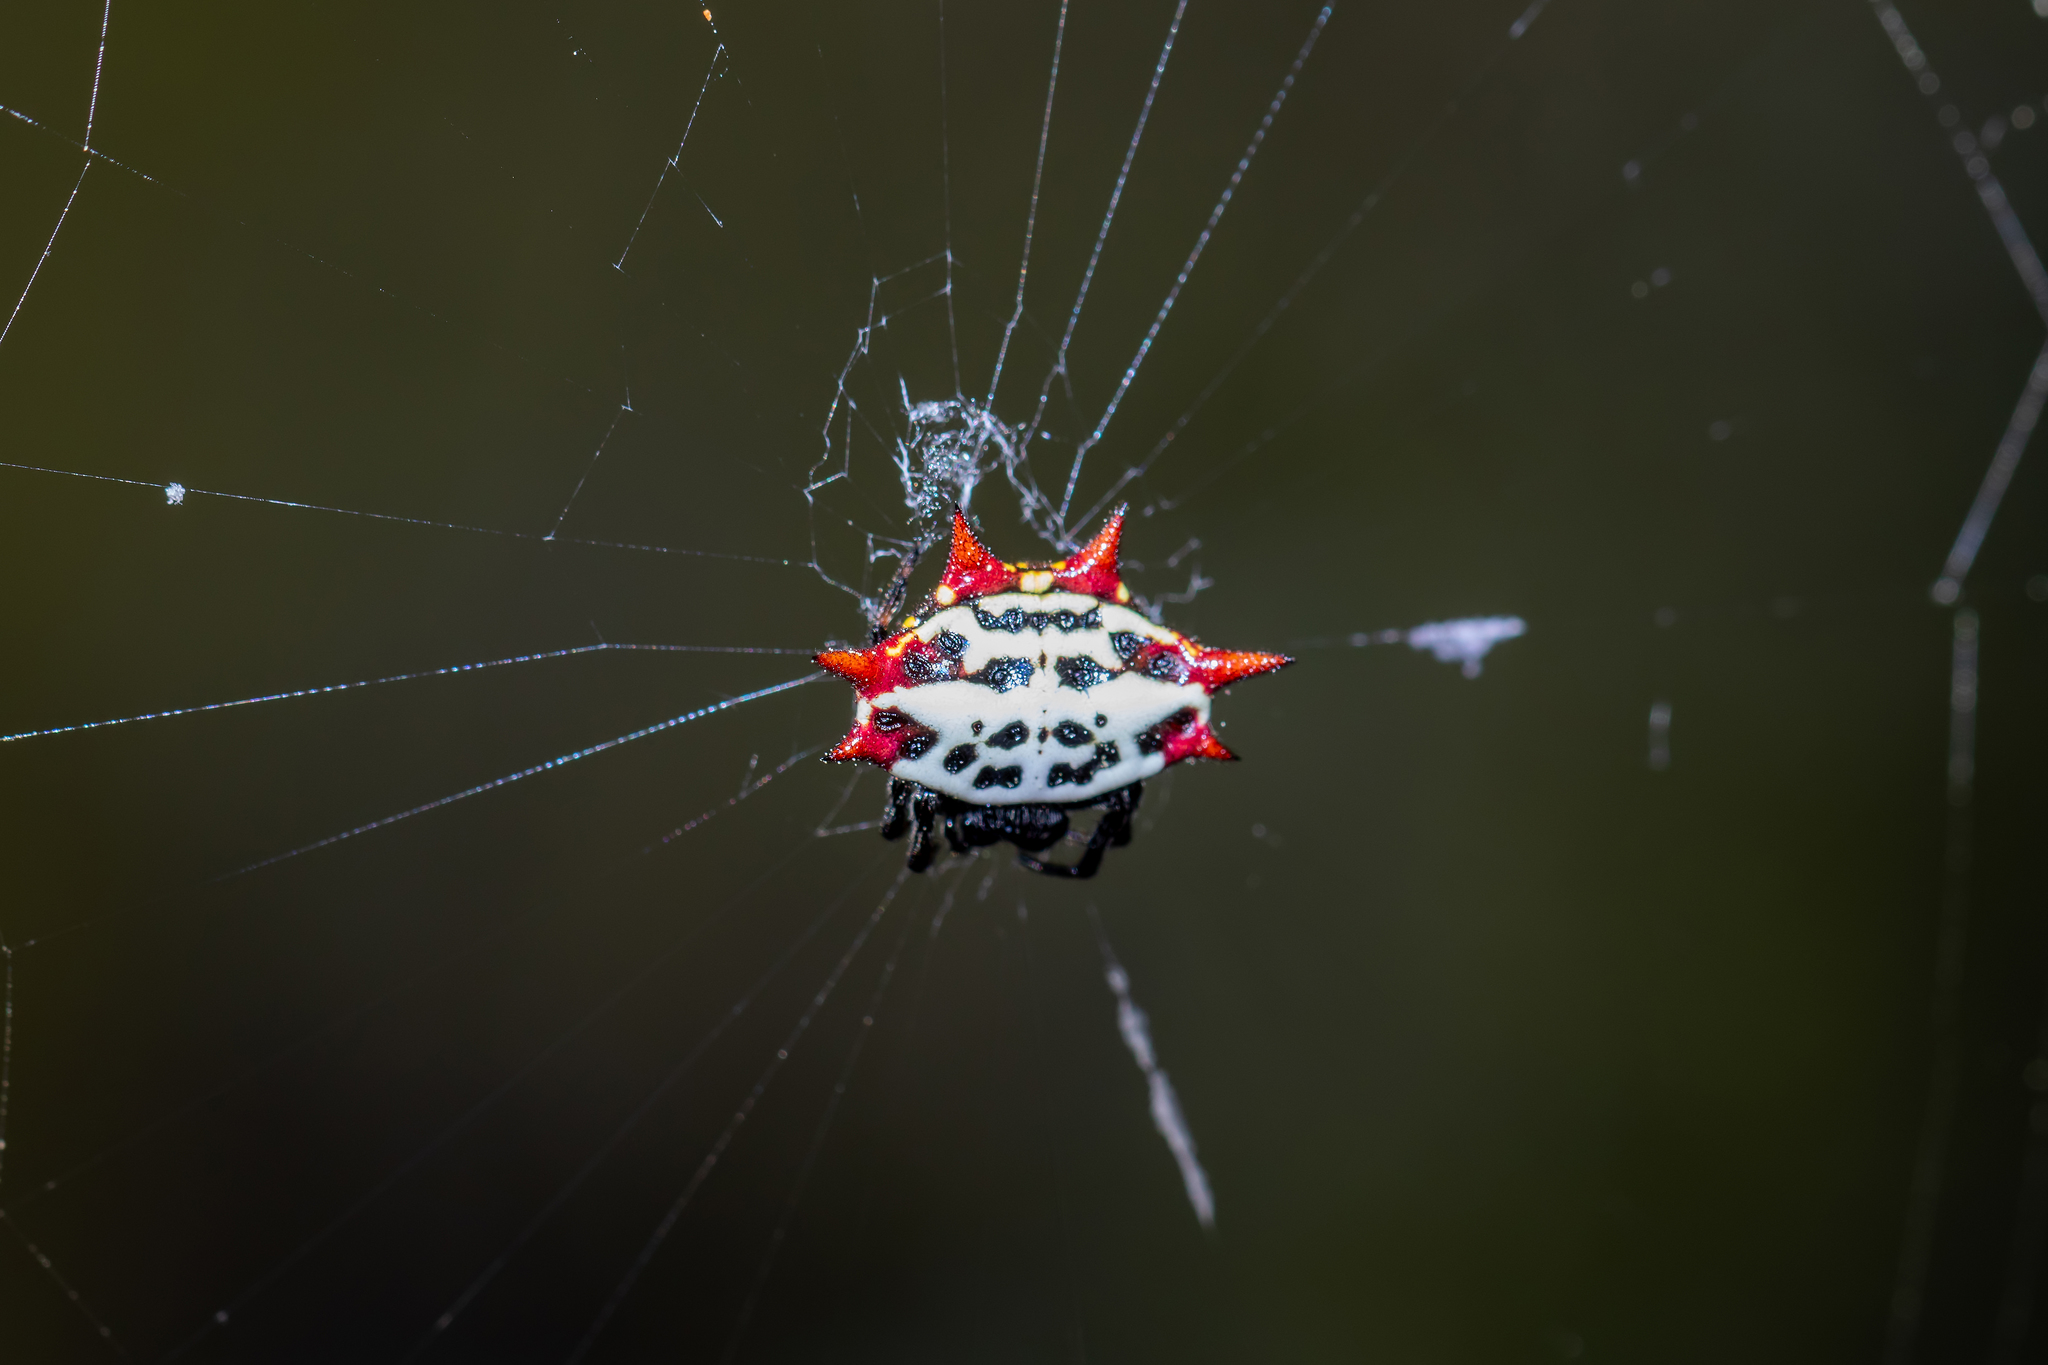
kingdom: Animalia
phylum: Arthropoda
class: Arachnida
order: Araneae
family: Araneidae
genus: Gasteracantha
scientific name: Gasteracantha cancriformis
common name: Orb weavers
